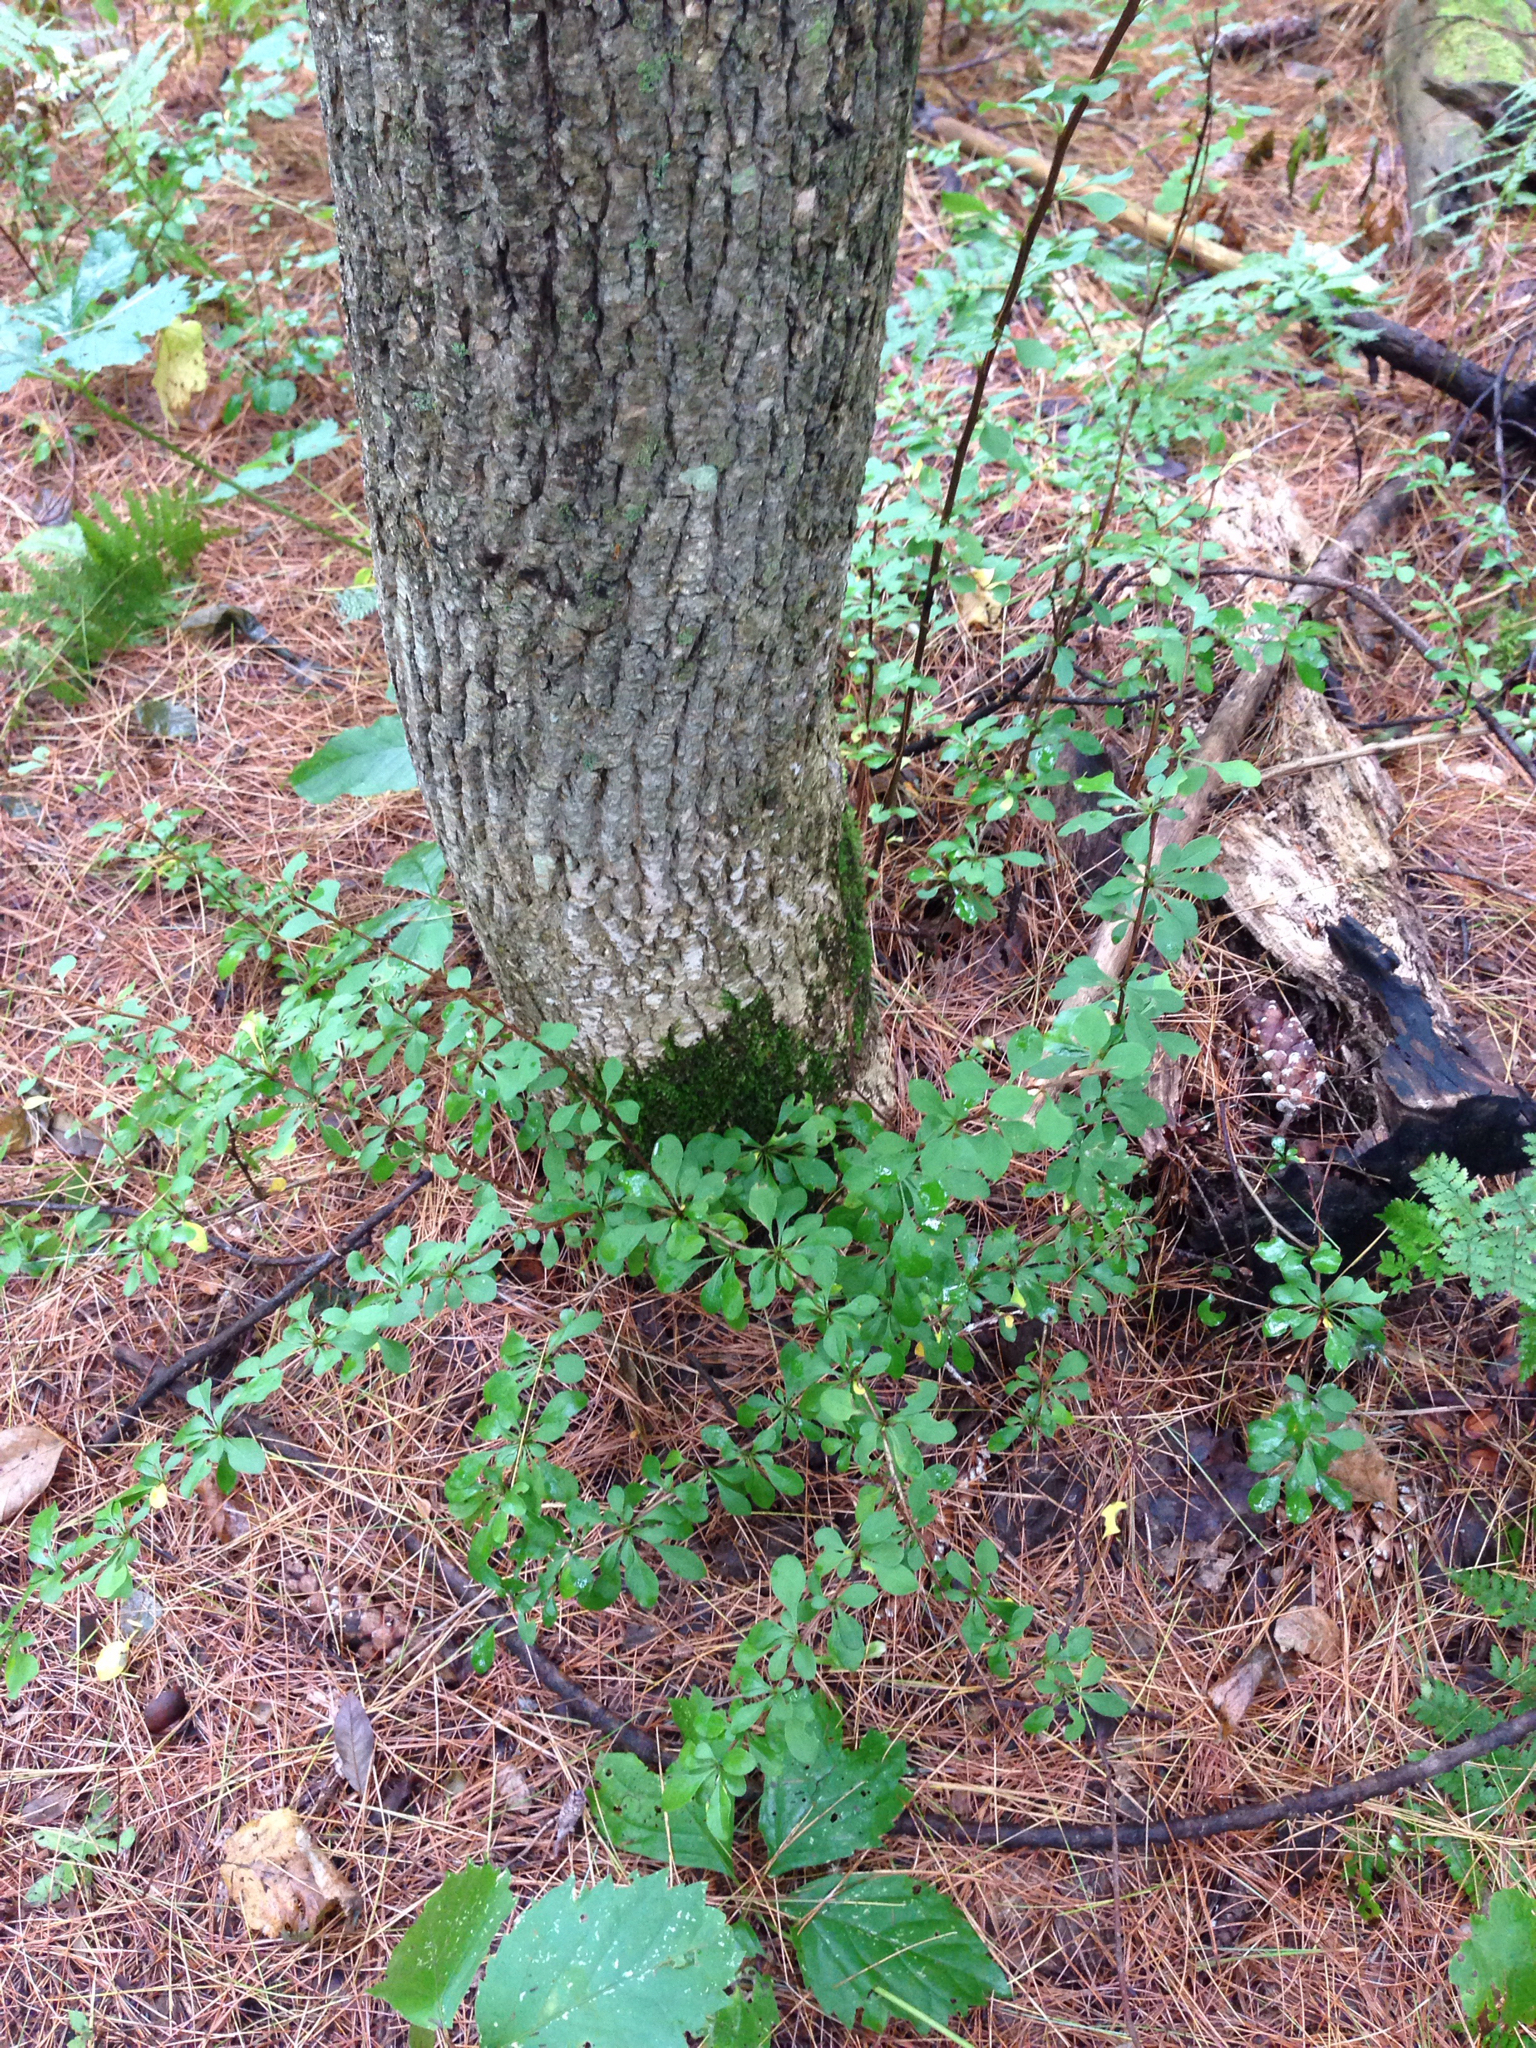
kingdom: Plantae
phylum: Tracheophyta
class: Magnoliopsida
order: Ranunculales
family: Berberidaceae
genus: Berberis
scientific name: Berberis thunbergii
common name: Japanese barberry
